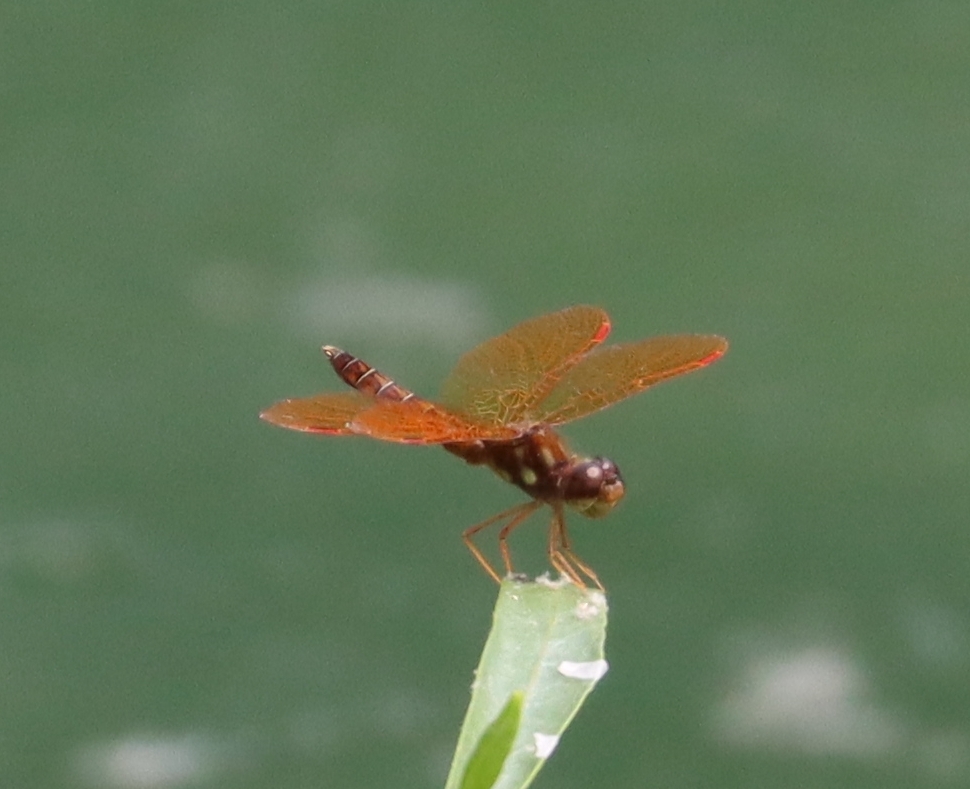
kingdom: Animalia
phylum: Arthropoda
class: Insecta
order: Odonata
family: Libellulidae
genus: Perithemis
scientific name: Perithemis tenera
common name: Eastern amberwing
